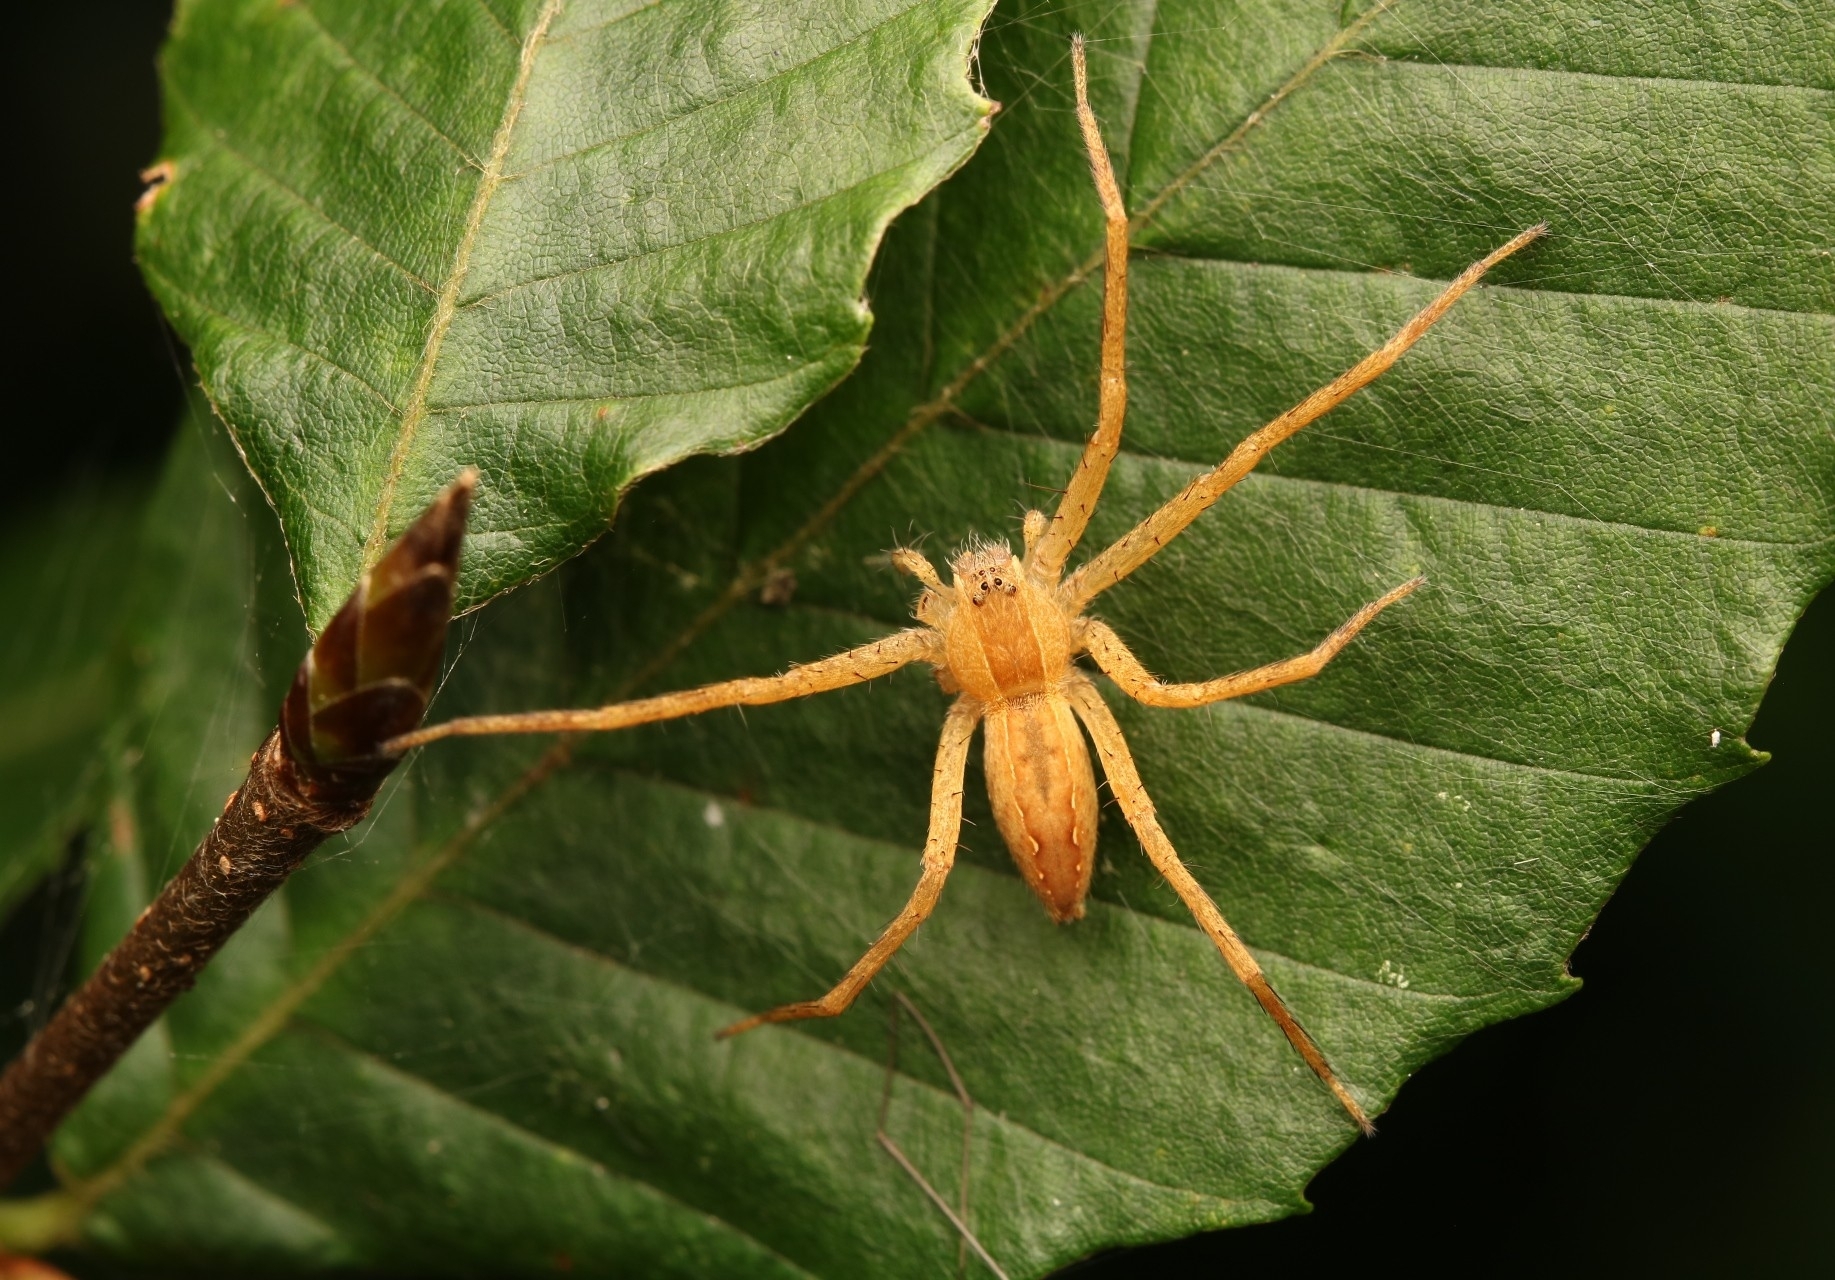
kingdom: Animalia
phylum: Arthropoda
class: Arachnida
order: Araneae
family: Pisauridae
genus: Pisaurina
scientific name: Pisaurina mira
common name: American nursery web spider
